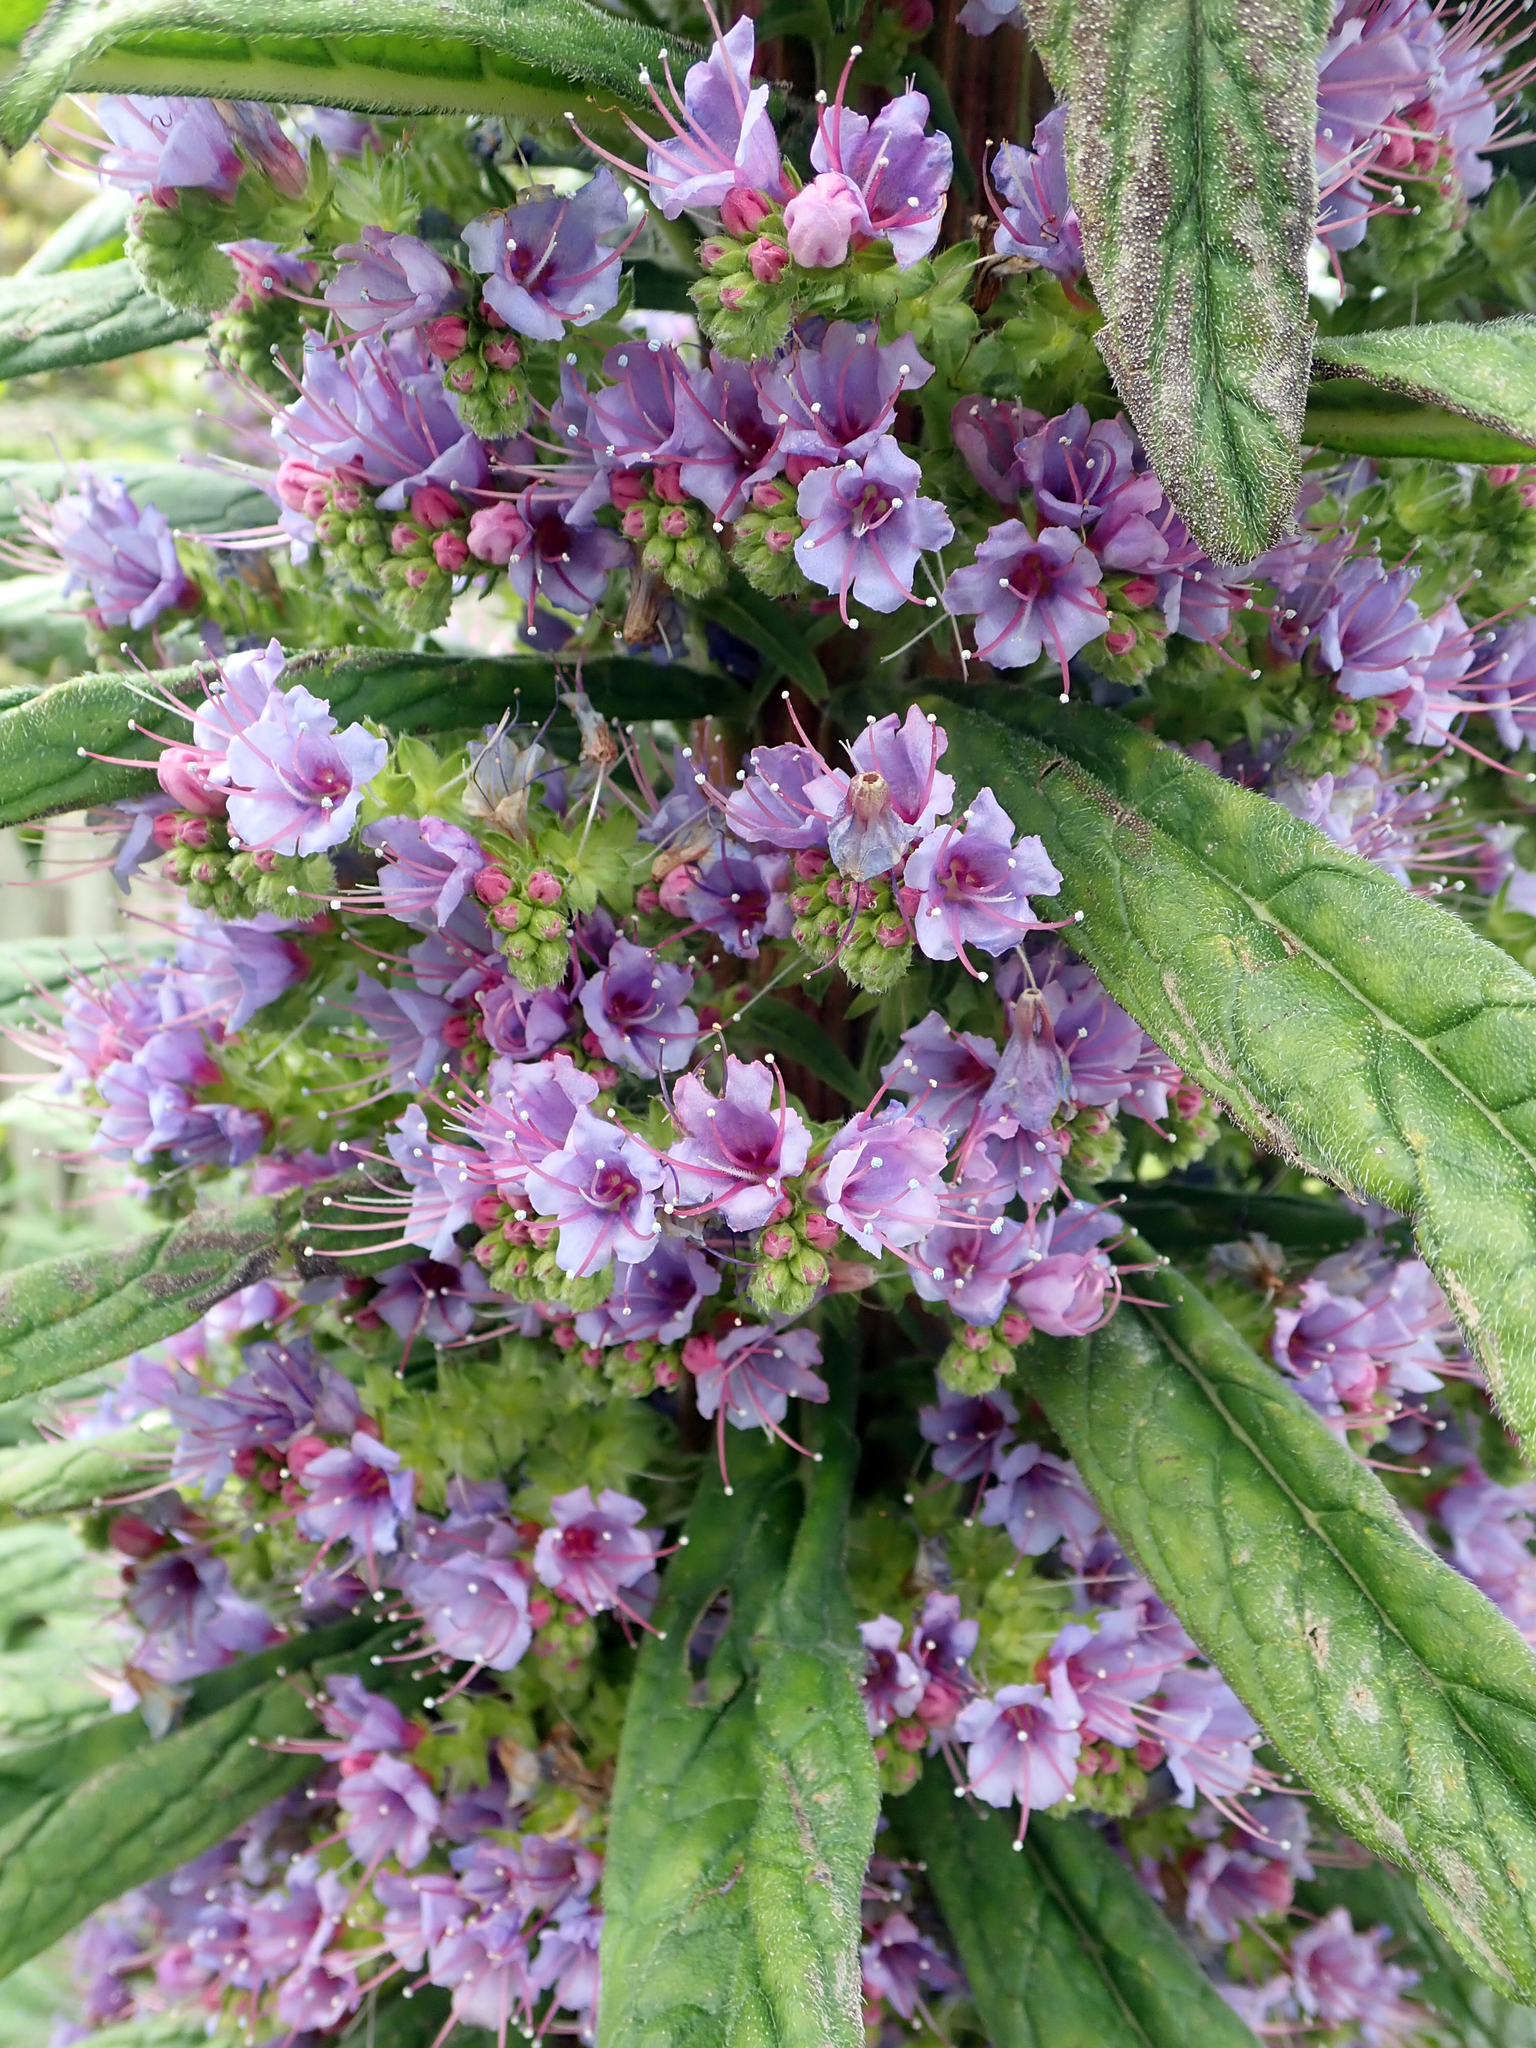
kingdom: Plantae
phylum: Tracheophyta
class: Magnoliopsida
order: Boraginales
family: Boraginaceae
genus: Echium
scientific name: Echium pininana
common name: Giant viper's-bugloss
